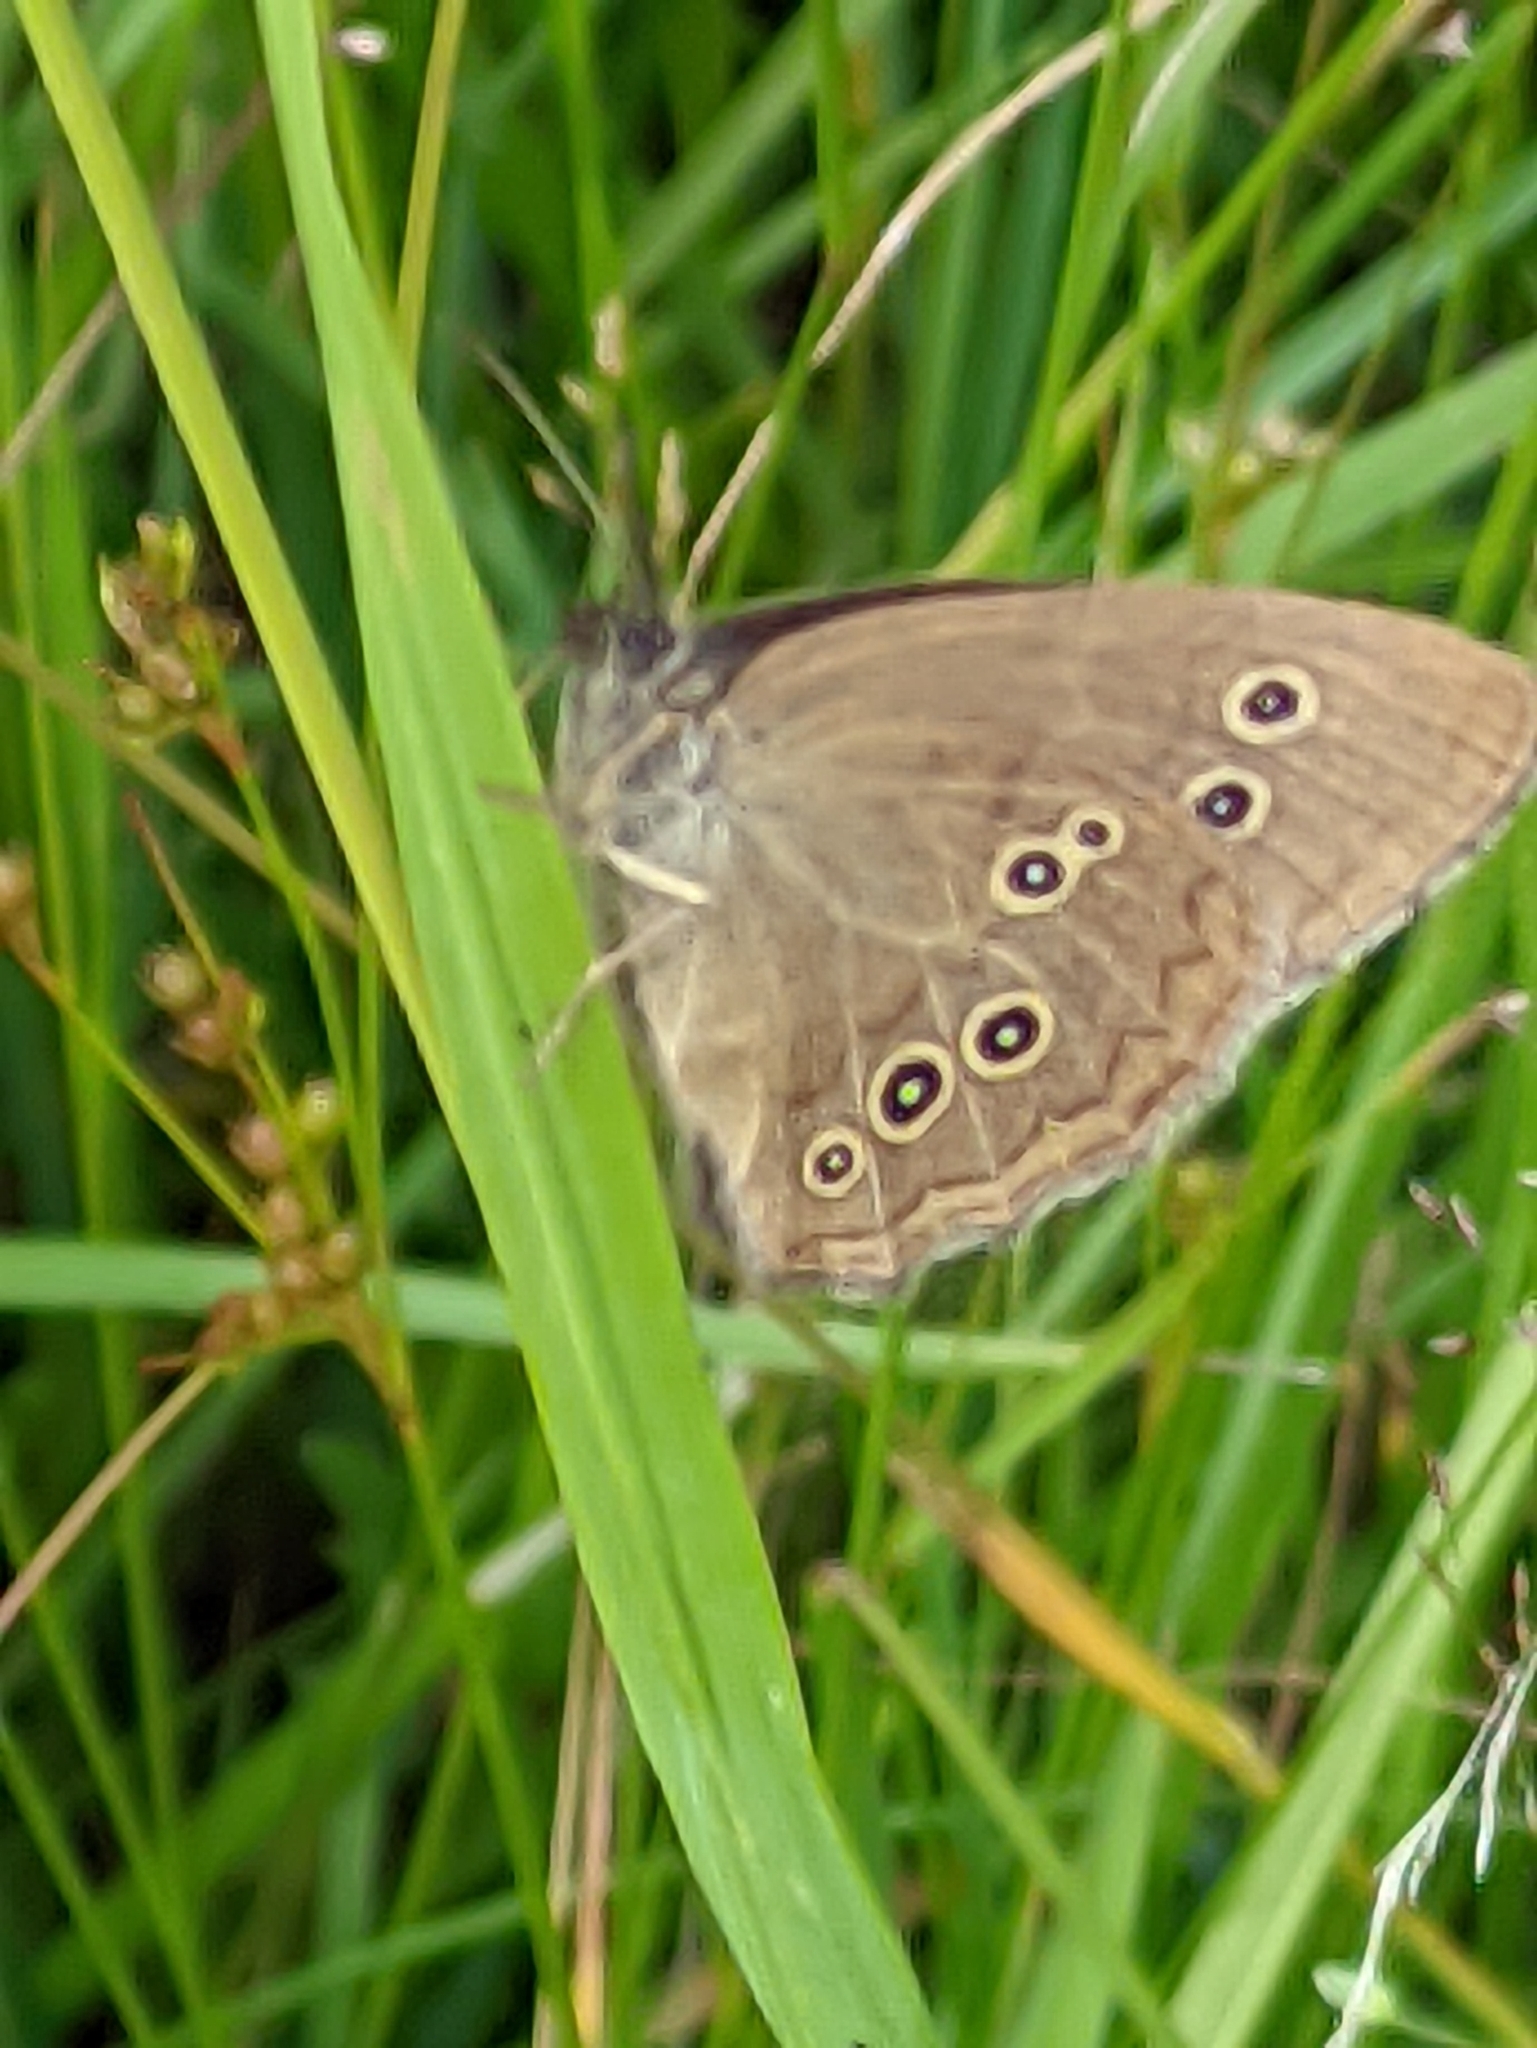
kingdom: Animalia
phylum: Arthropoda
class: Insecta
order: Lepidoptera
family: Nymphalidae
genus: Aphantopus
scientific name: Aphantopus hyperantus
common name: Ringlet
